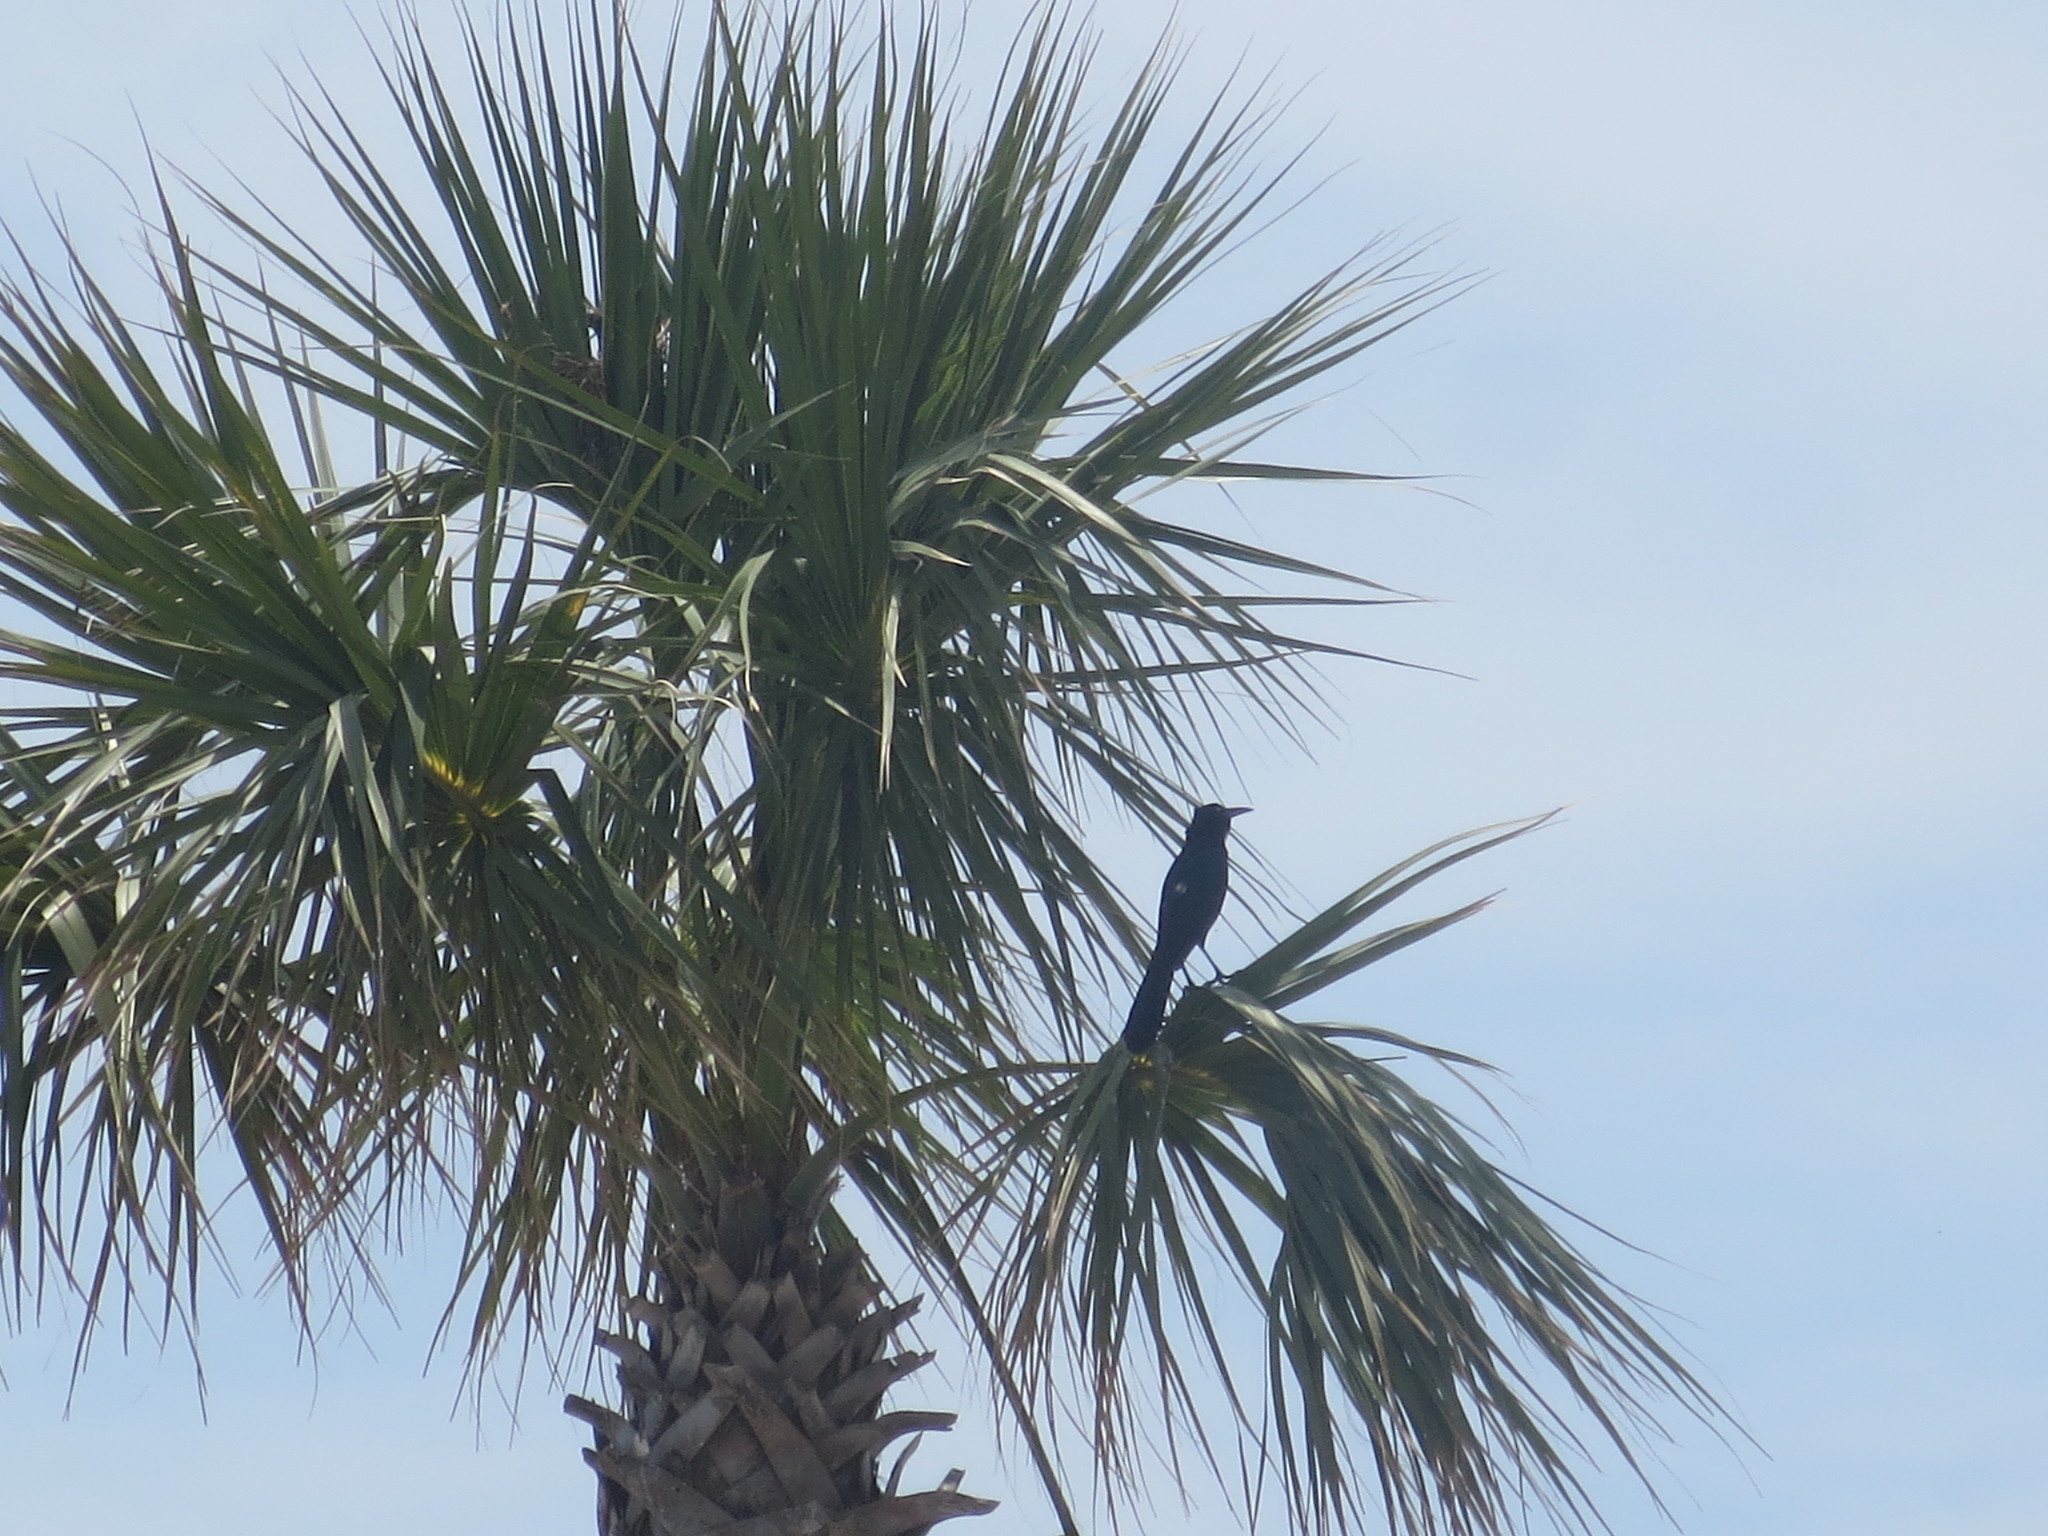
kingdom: Animalia
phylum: Chordata
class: Aves
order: Passeriformes
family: Icteridae
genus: Quiscalus
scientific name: Quiscalus major
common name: Boat-tailed grackle
